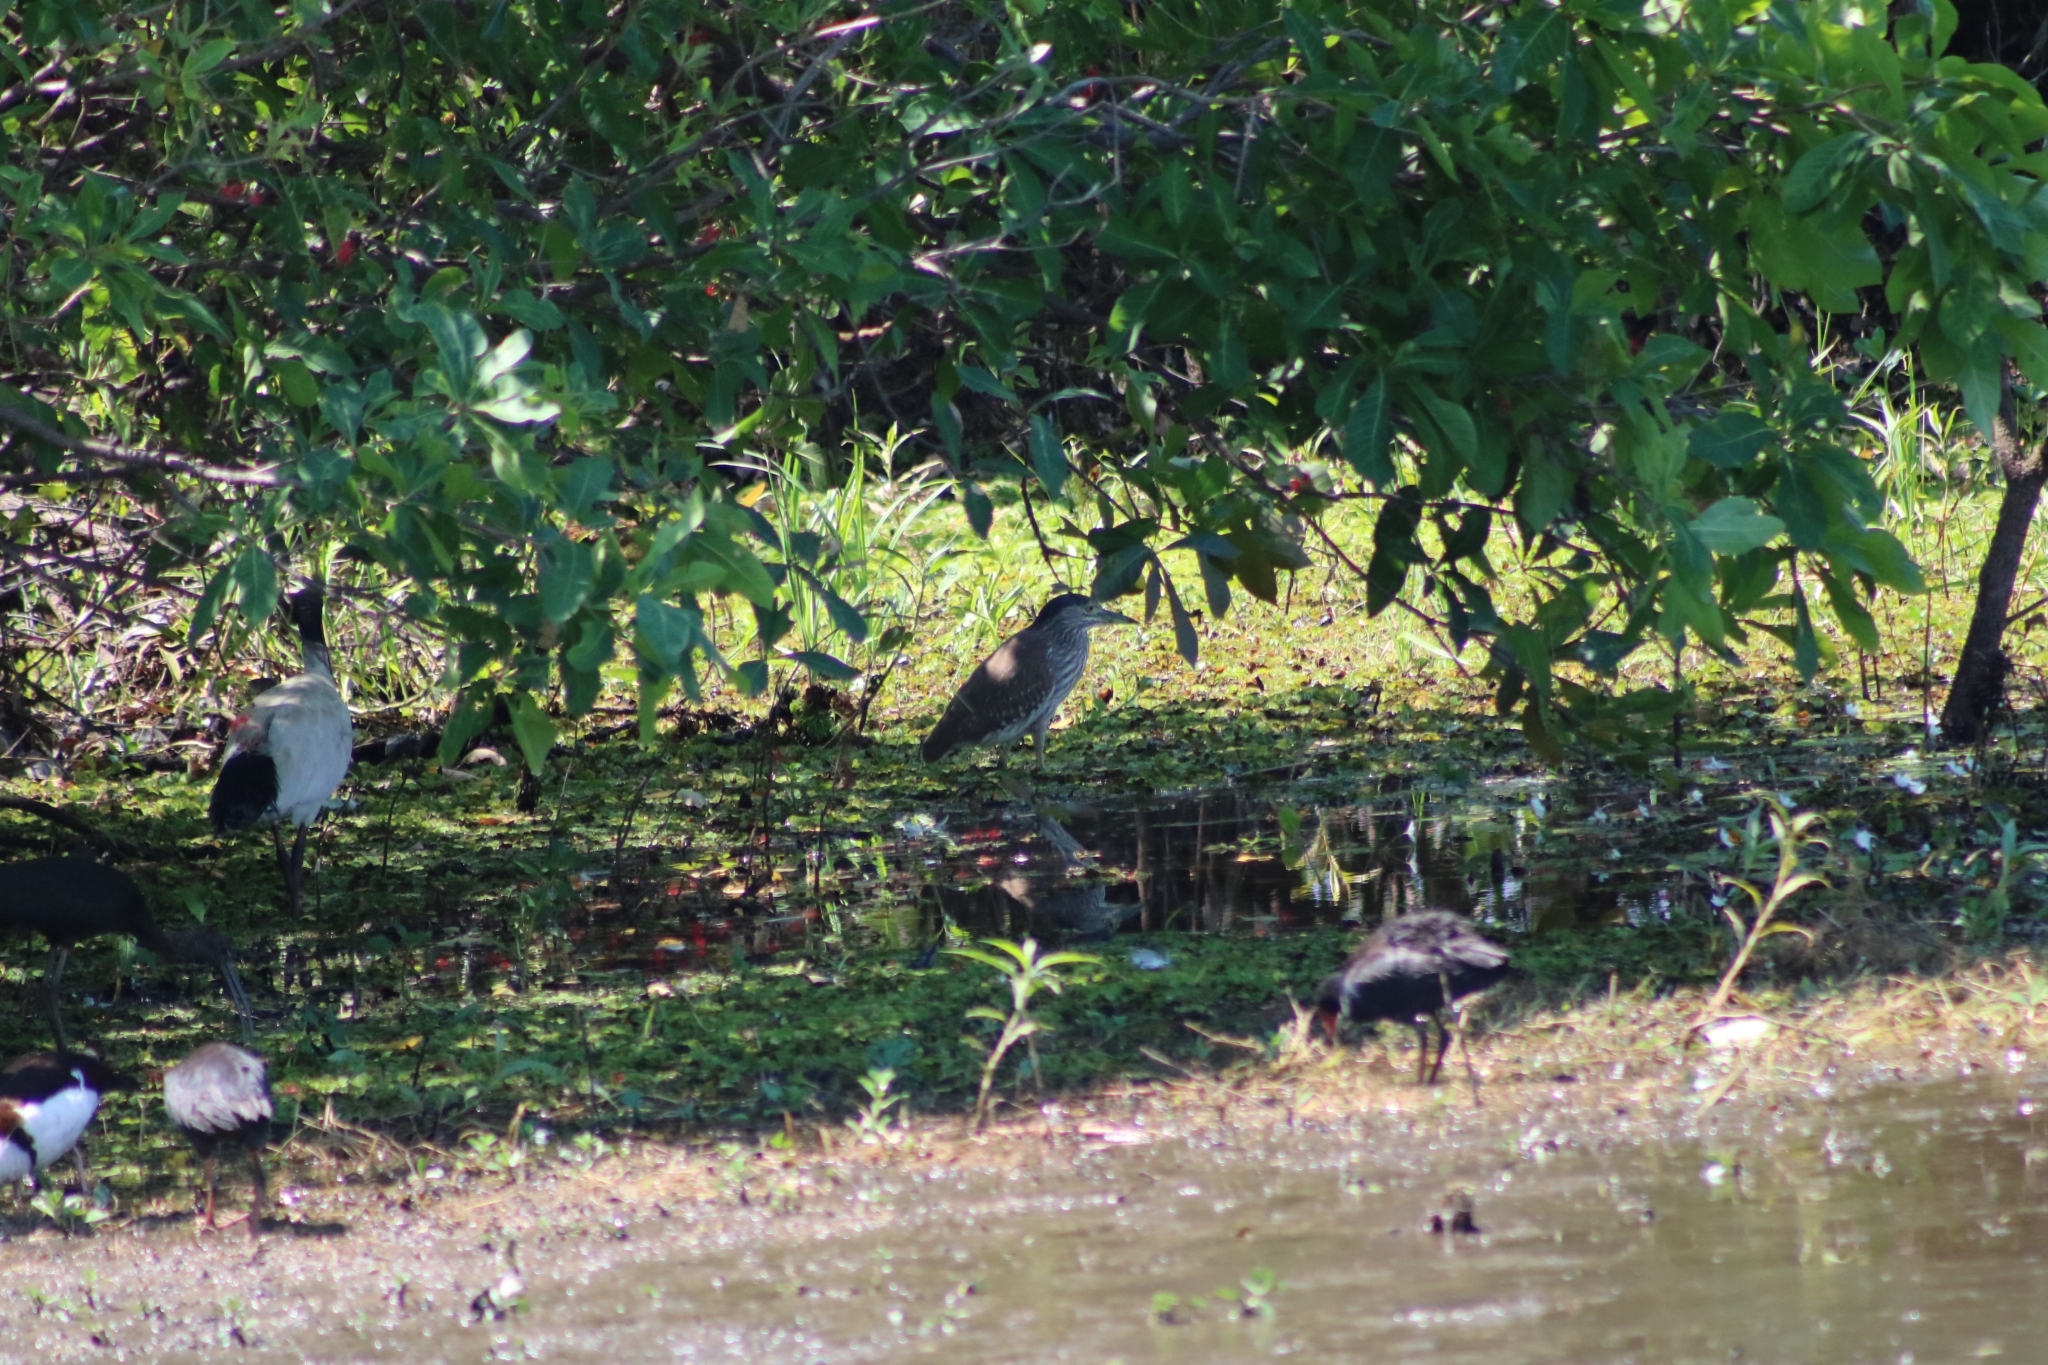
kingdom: Animalia
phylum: Chordata
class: Aves
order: Pelecaniformes
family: Ardeidae
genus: Nycticorax
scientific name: Nycticorax caledonicus
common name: Rufous night-heron
